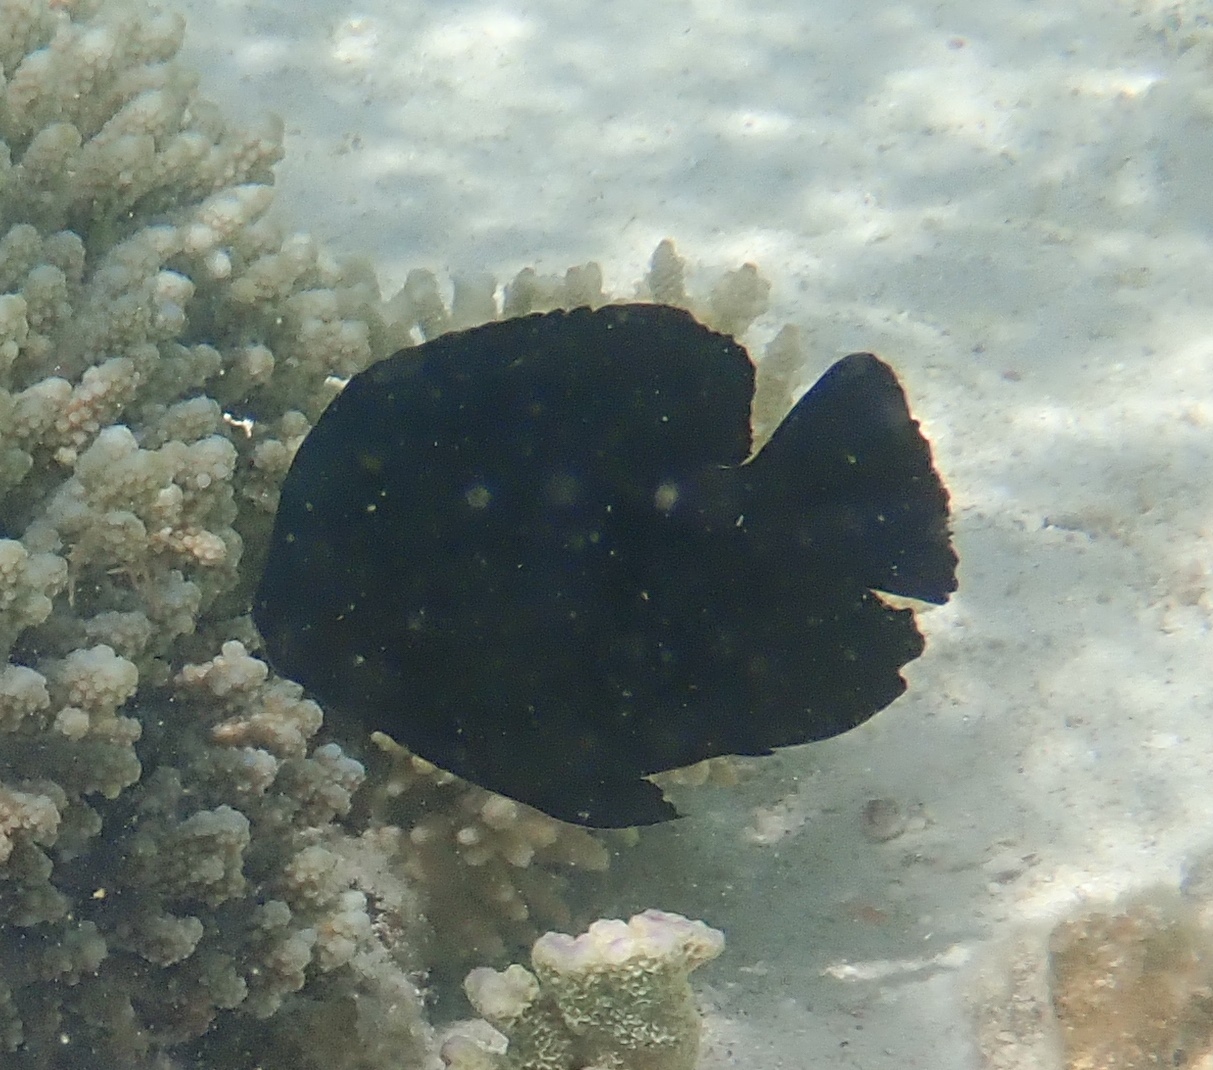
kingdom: Animalia
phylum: Chordata
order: Perciformes
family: Pomacentridae
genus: Neoglyphidodon
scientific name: Neoglyphidodon melas
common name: Black damsel
